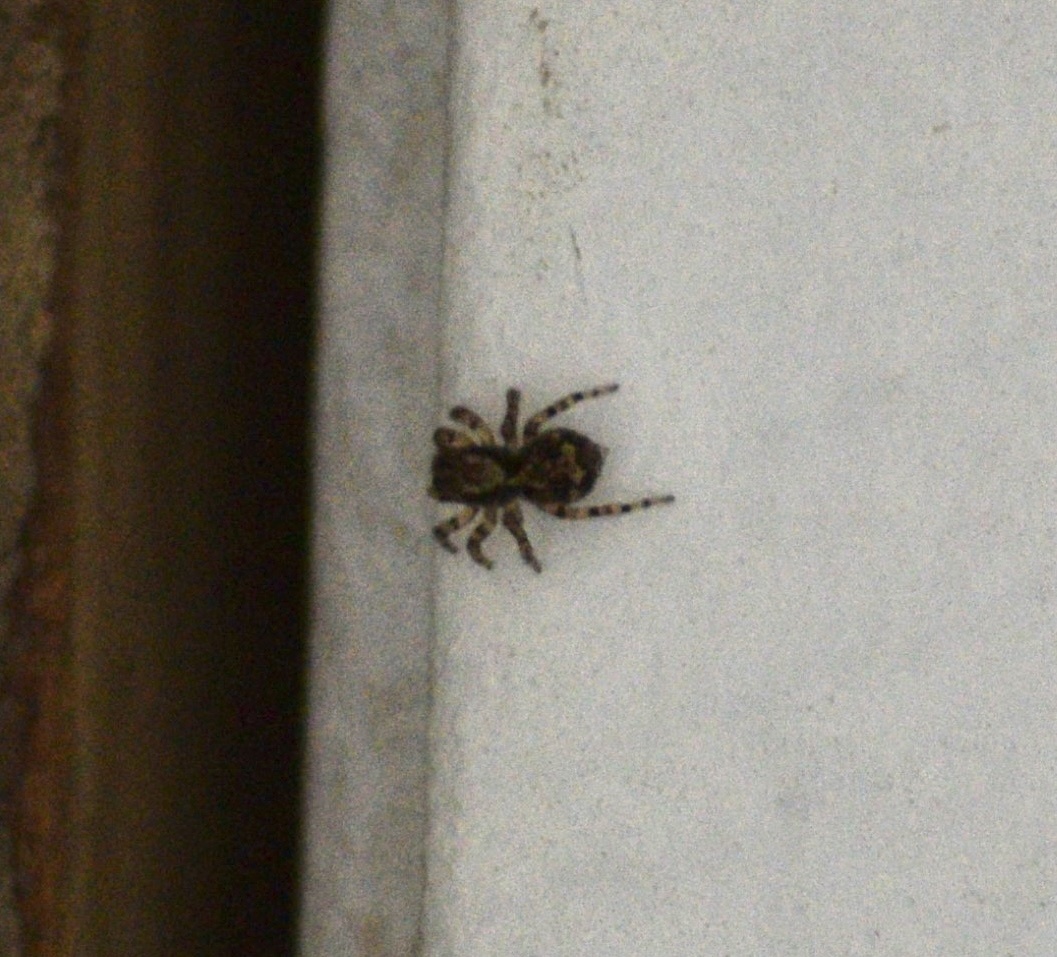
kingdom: Animalia
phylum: Arthropoda
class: Arachnida
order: Araneae
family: Salticidae
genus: Naphrys
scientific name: Naphrys pulex
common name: Flea jumping spider
